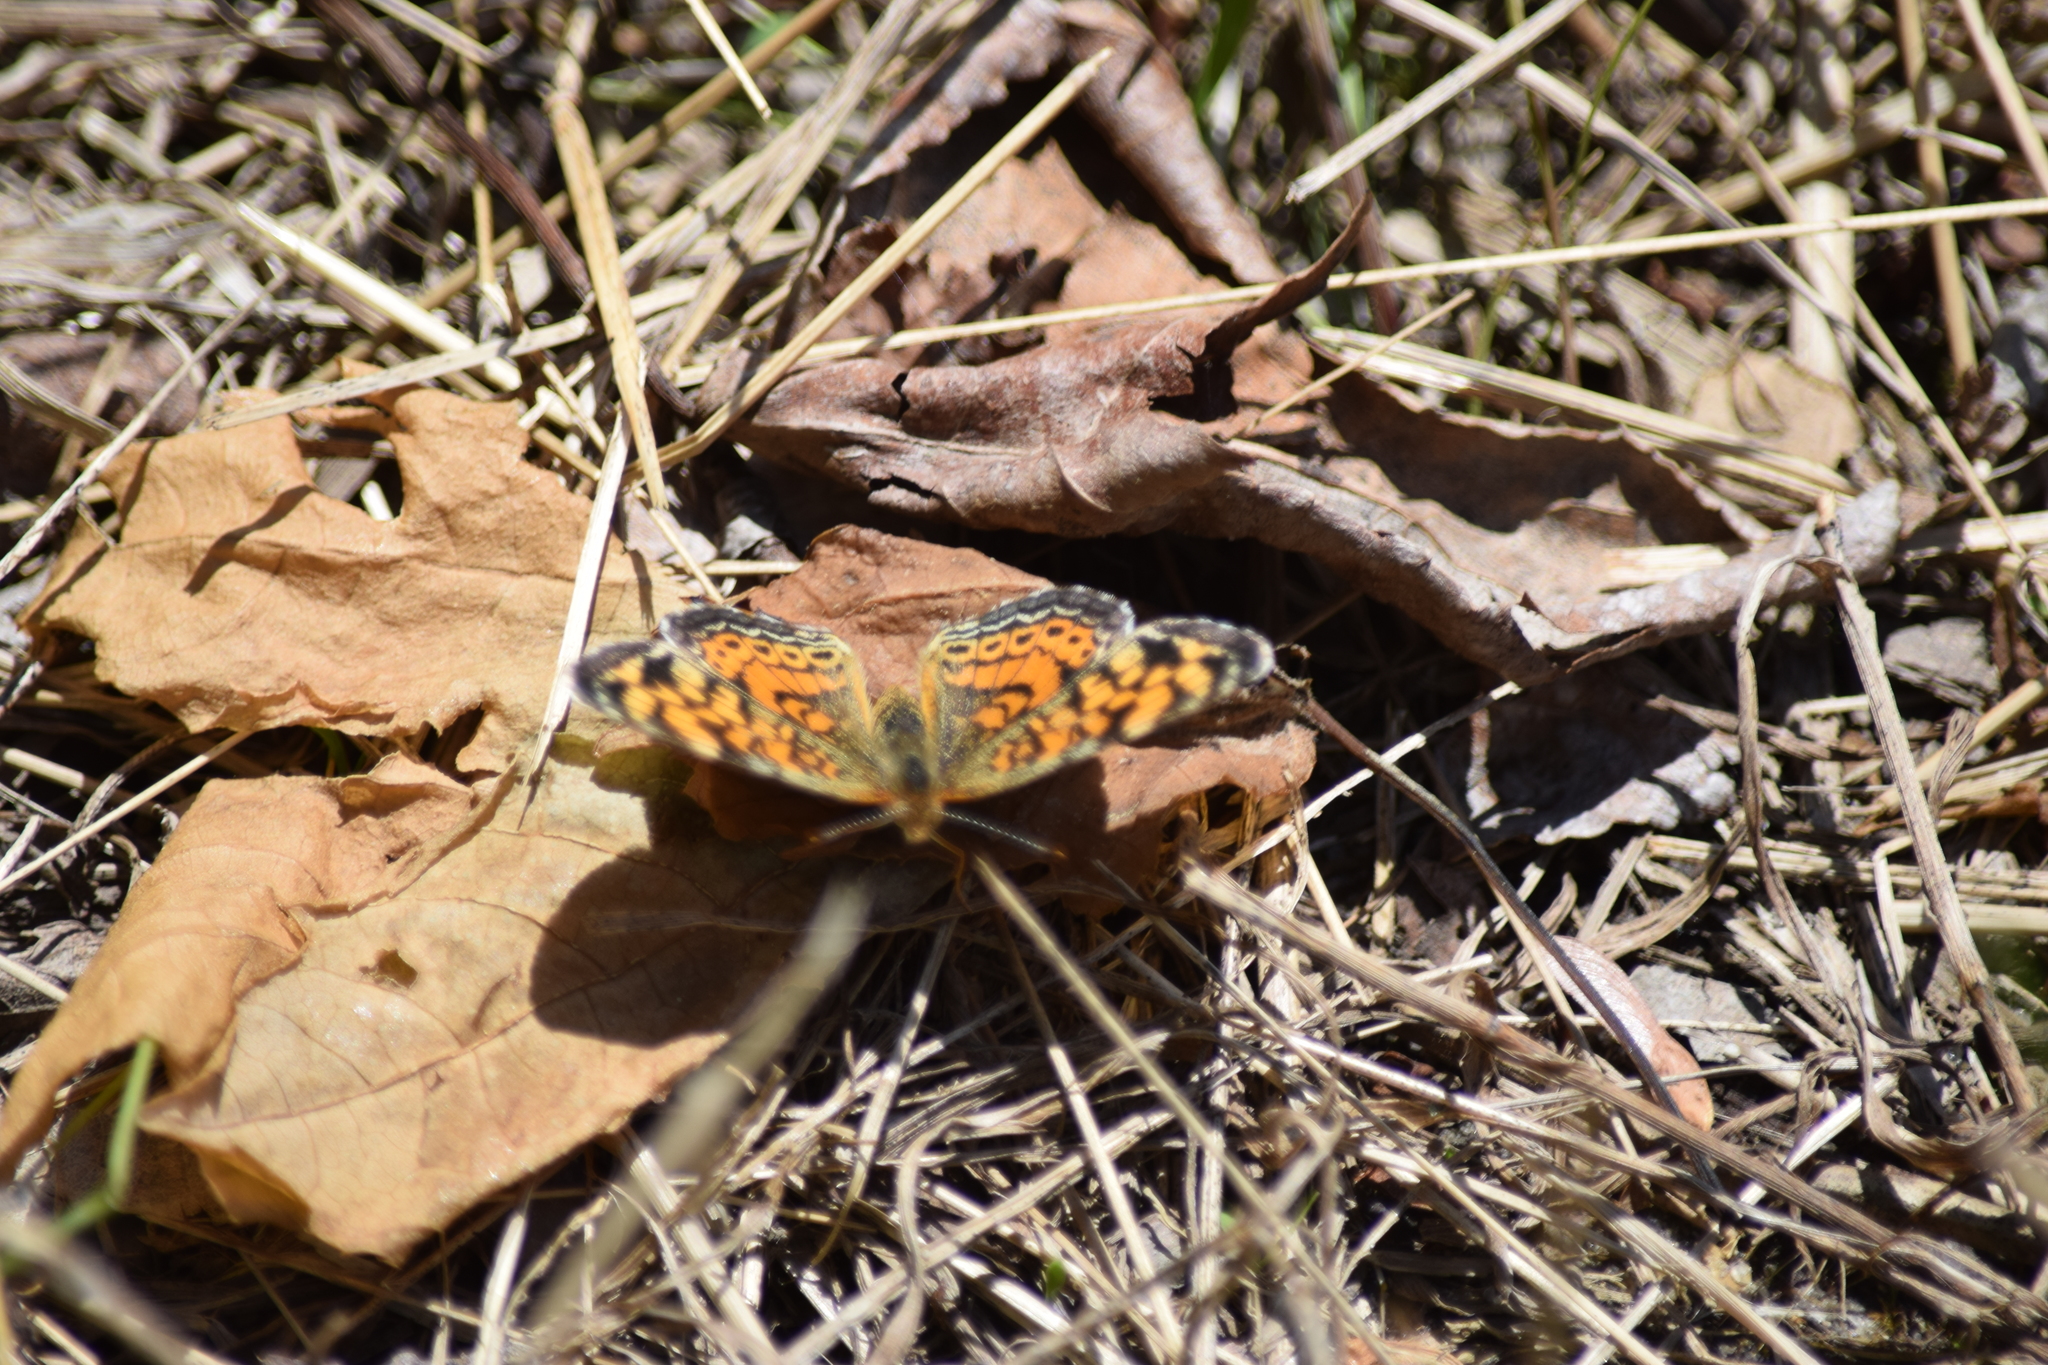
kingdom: Animalia
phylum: Arthropoda
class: Insecta
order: Lepidoptera
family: Nymphalidae
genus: Phyciodes
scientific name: Phyciodes tharos
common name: Pearl crescent
